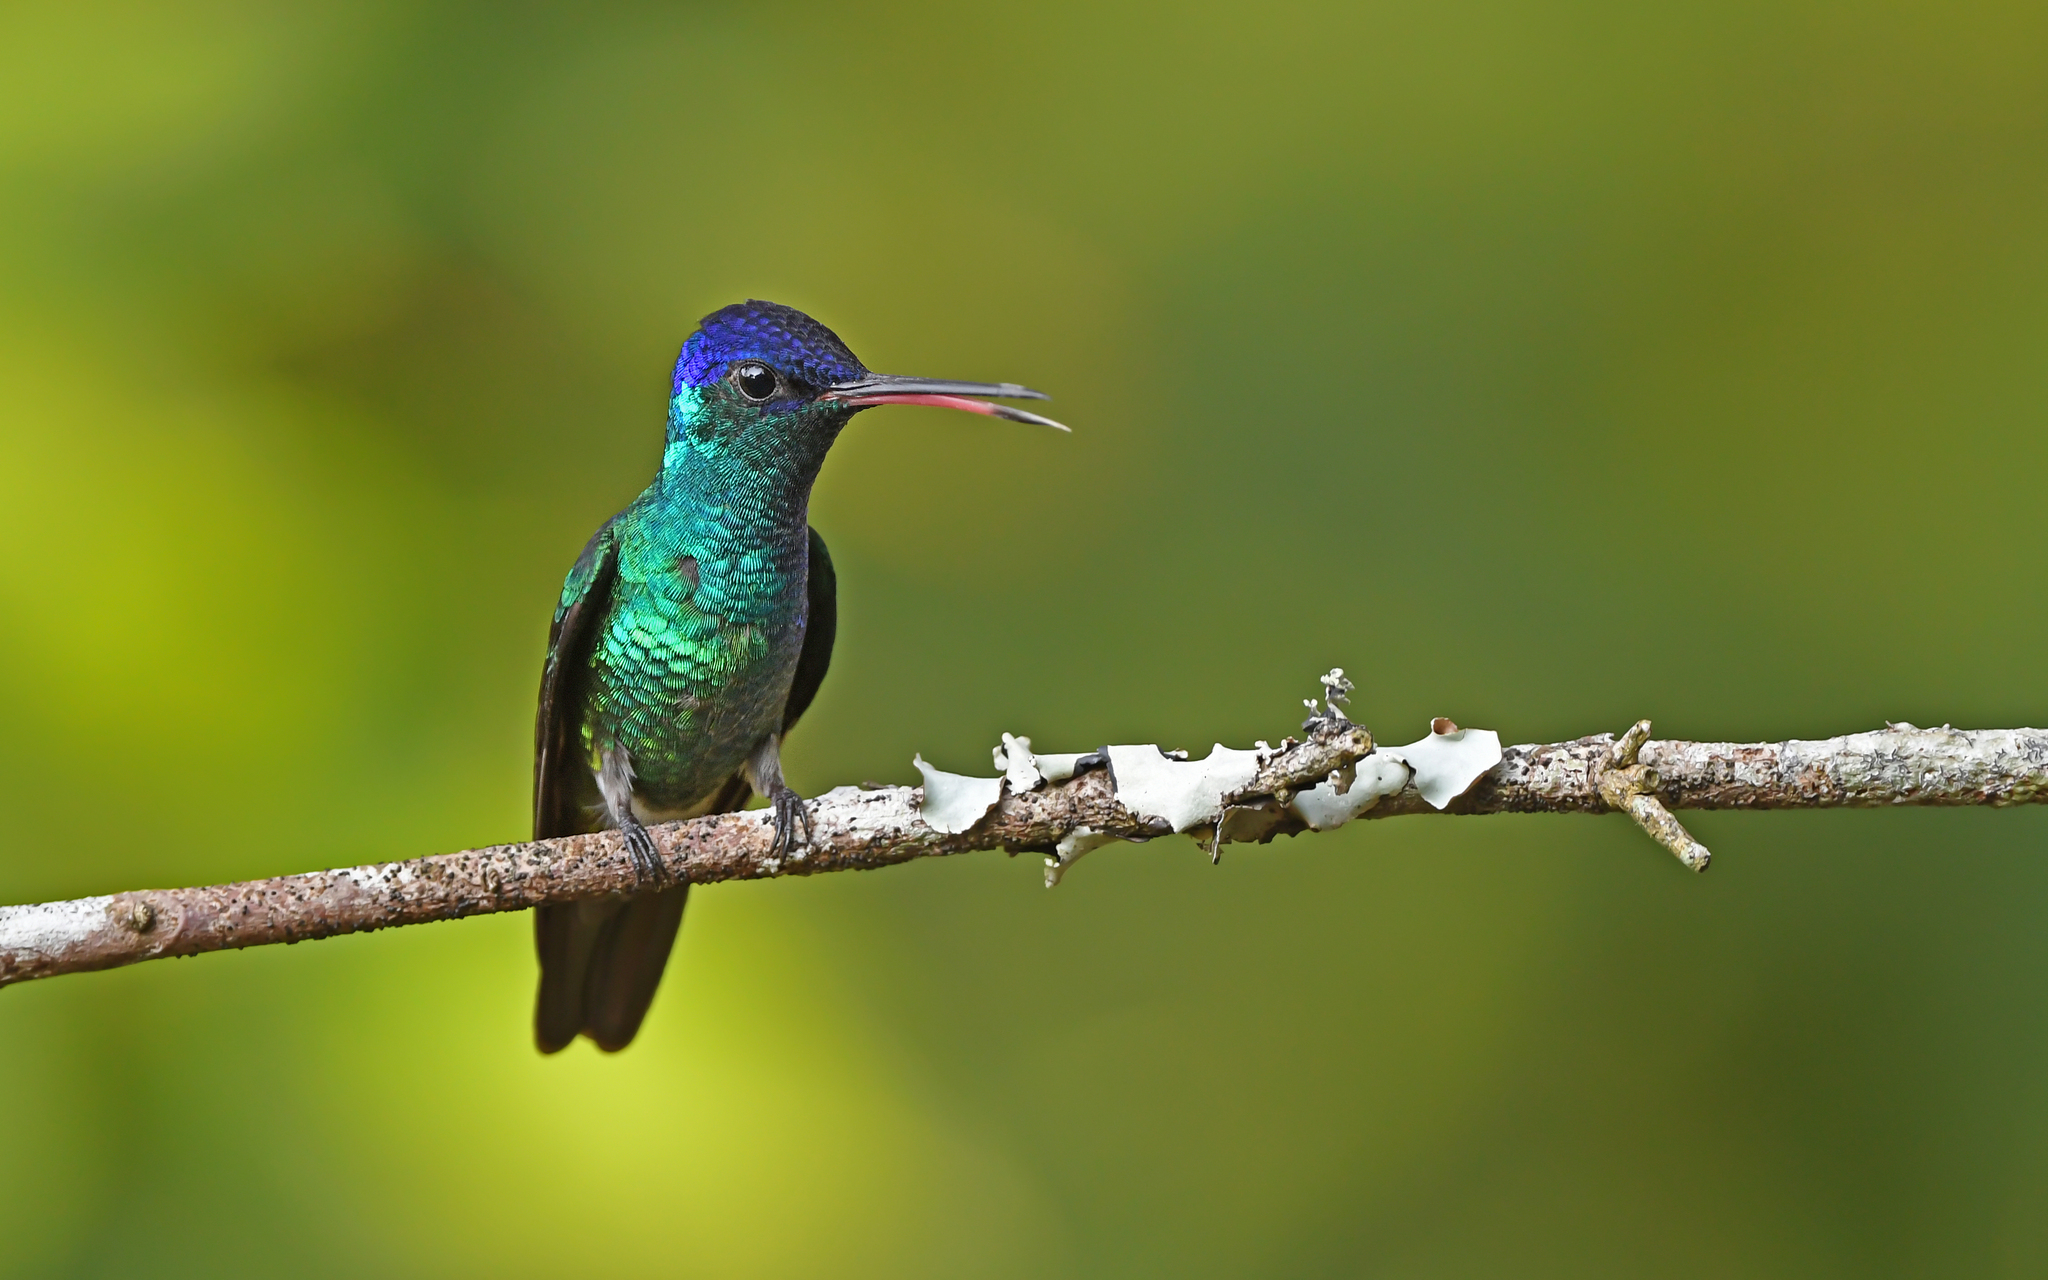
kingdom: Animalia
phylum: Chordata
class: Aves
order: Apodiformes
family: Trochilidae
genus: Chrysuronia
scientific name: Chrysuronia oenone
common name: Golden-tailed sapphire
